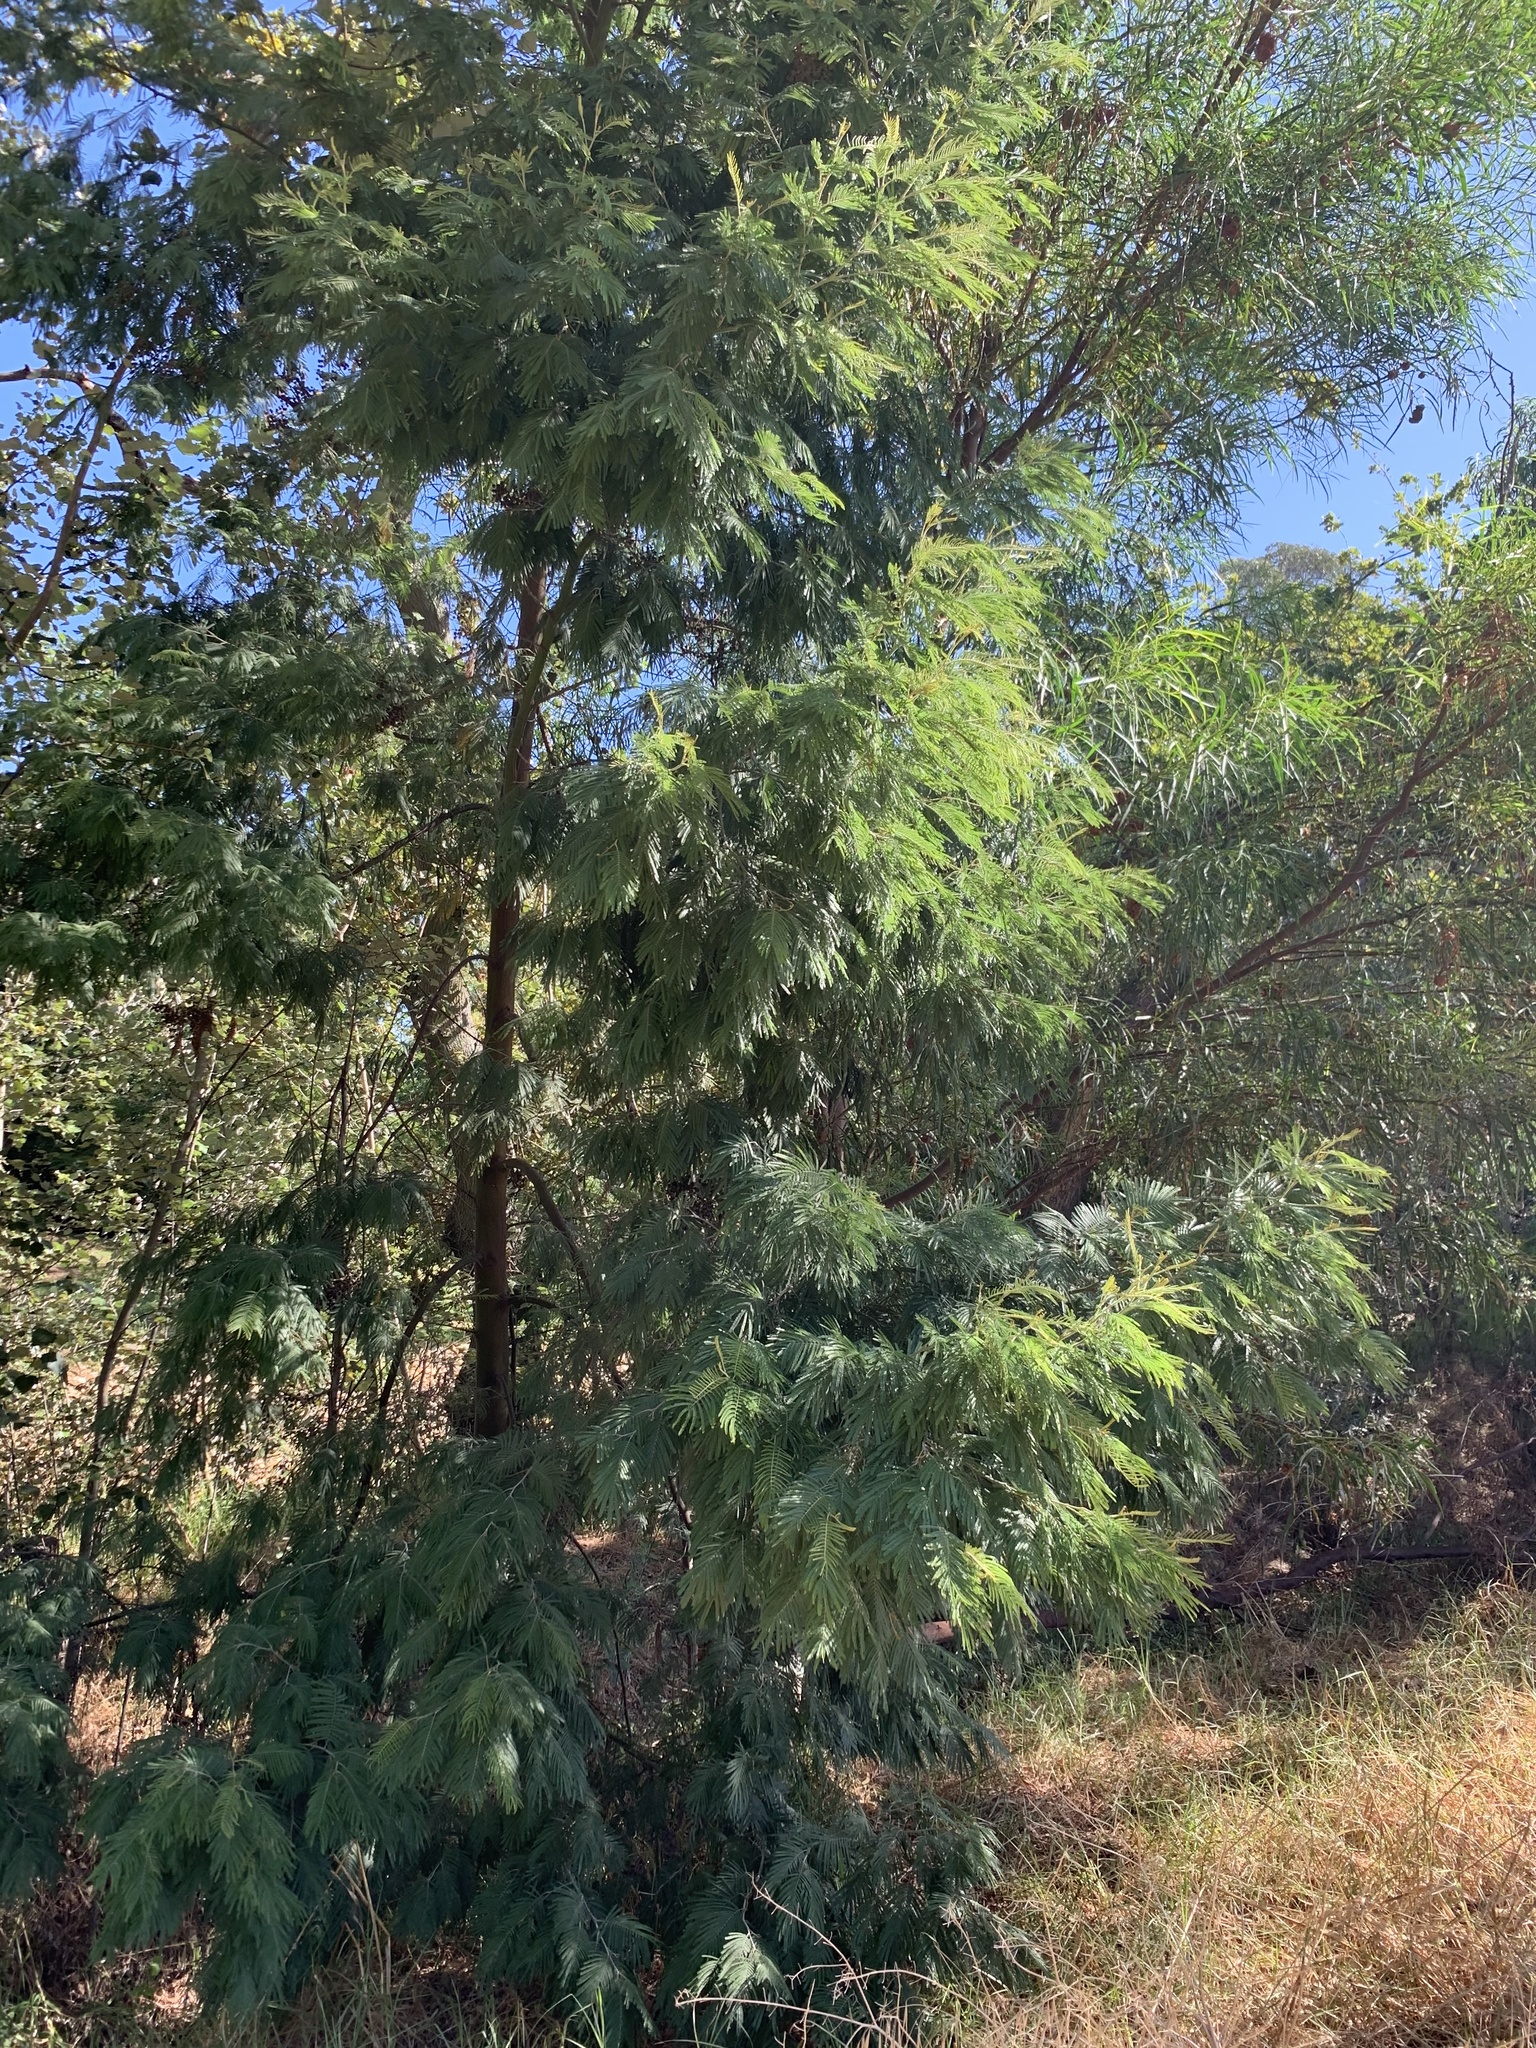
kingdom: Plantae
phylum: Tracheophyta
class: Magnoliopsida
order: Fabales
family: Fabaceae
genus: Acacia
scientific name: Acacia mearnsii
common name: Black wattle
